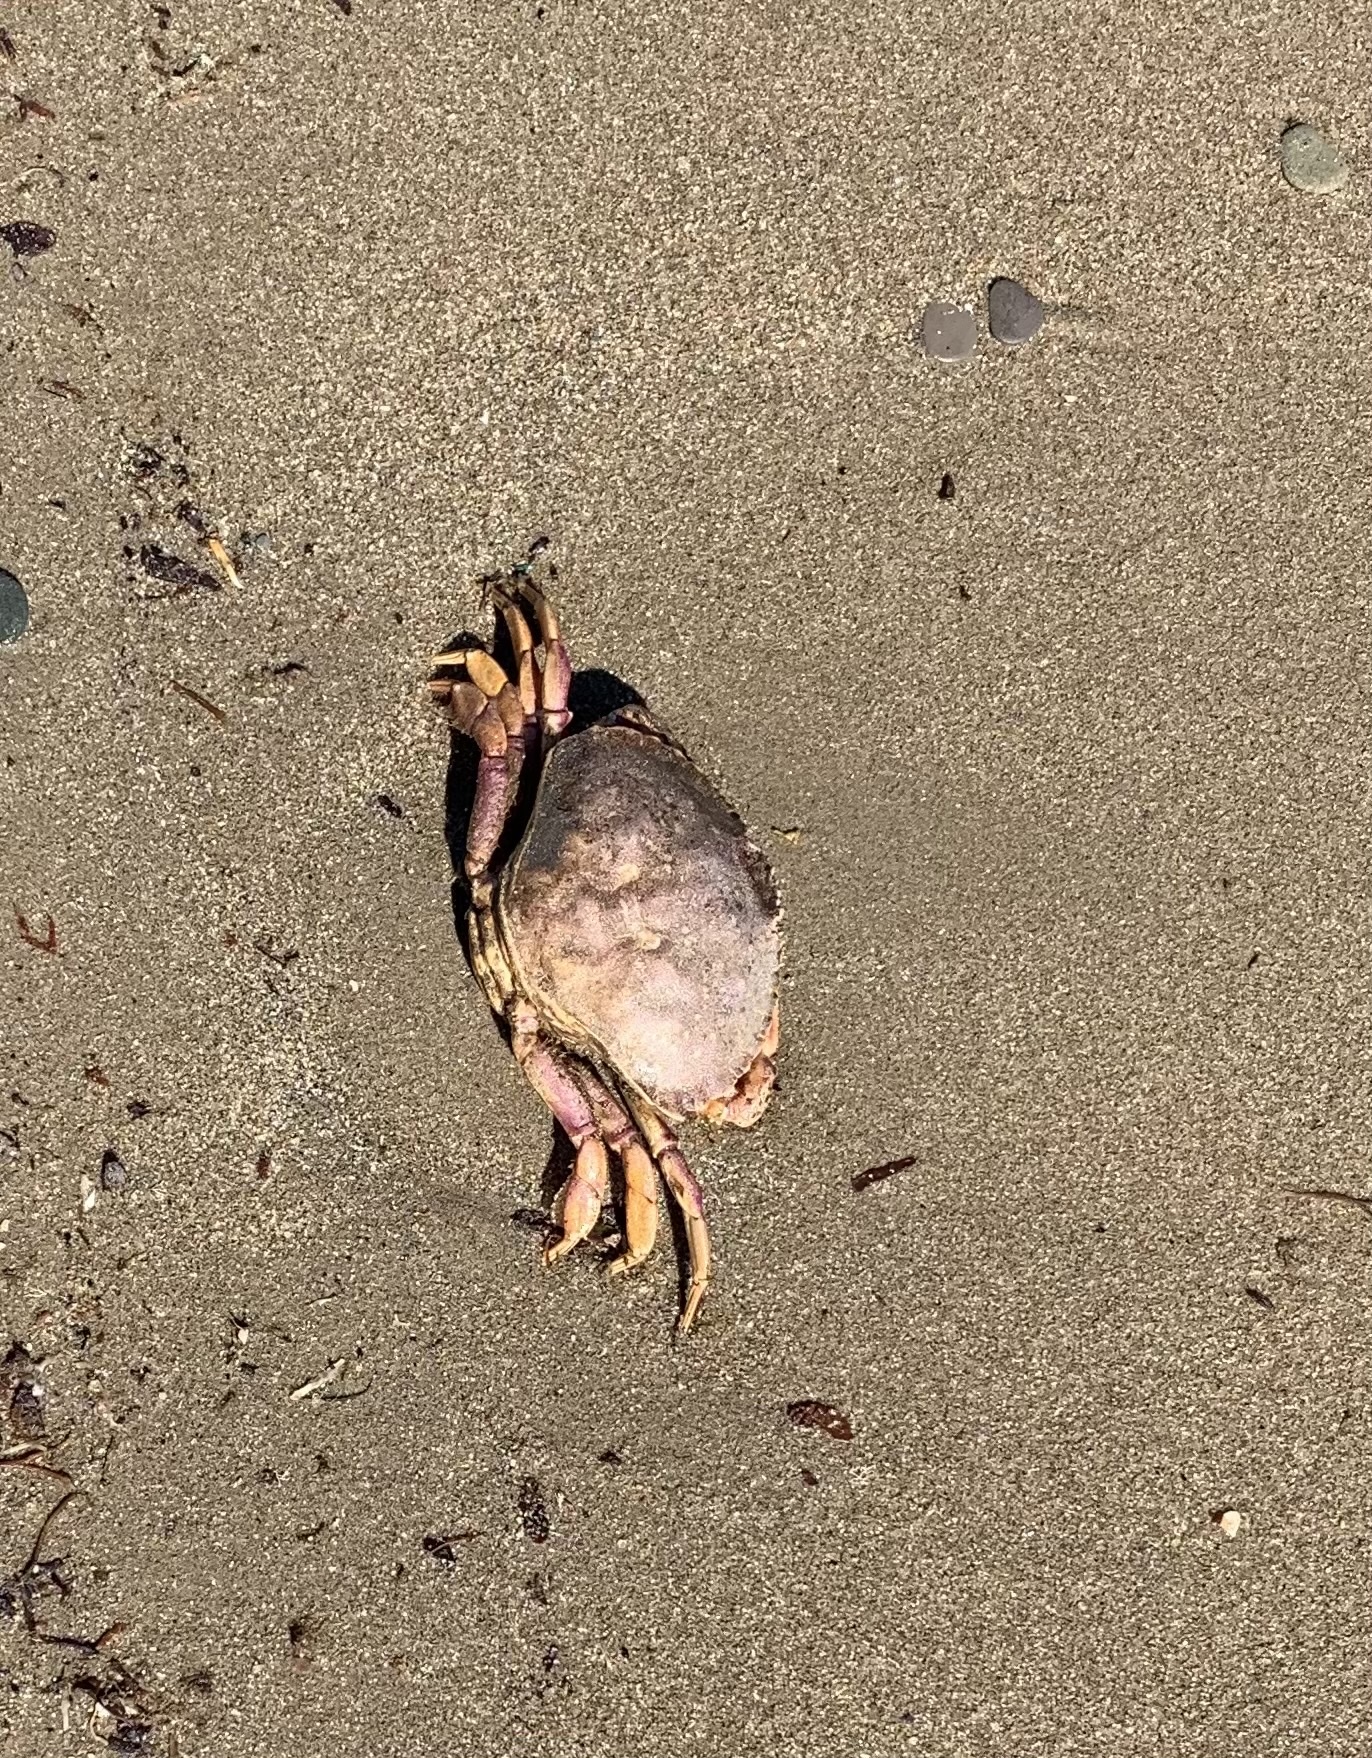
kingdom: Animalia
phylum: Arthropoda
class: Malacostraca
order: Decapoda
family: Cancridae
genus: Cancer
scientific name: Cancer irroratus
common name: Atlantic rock crab
